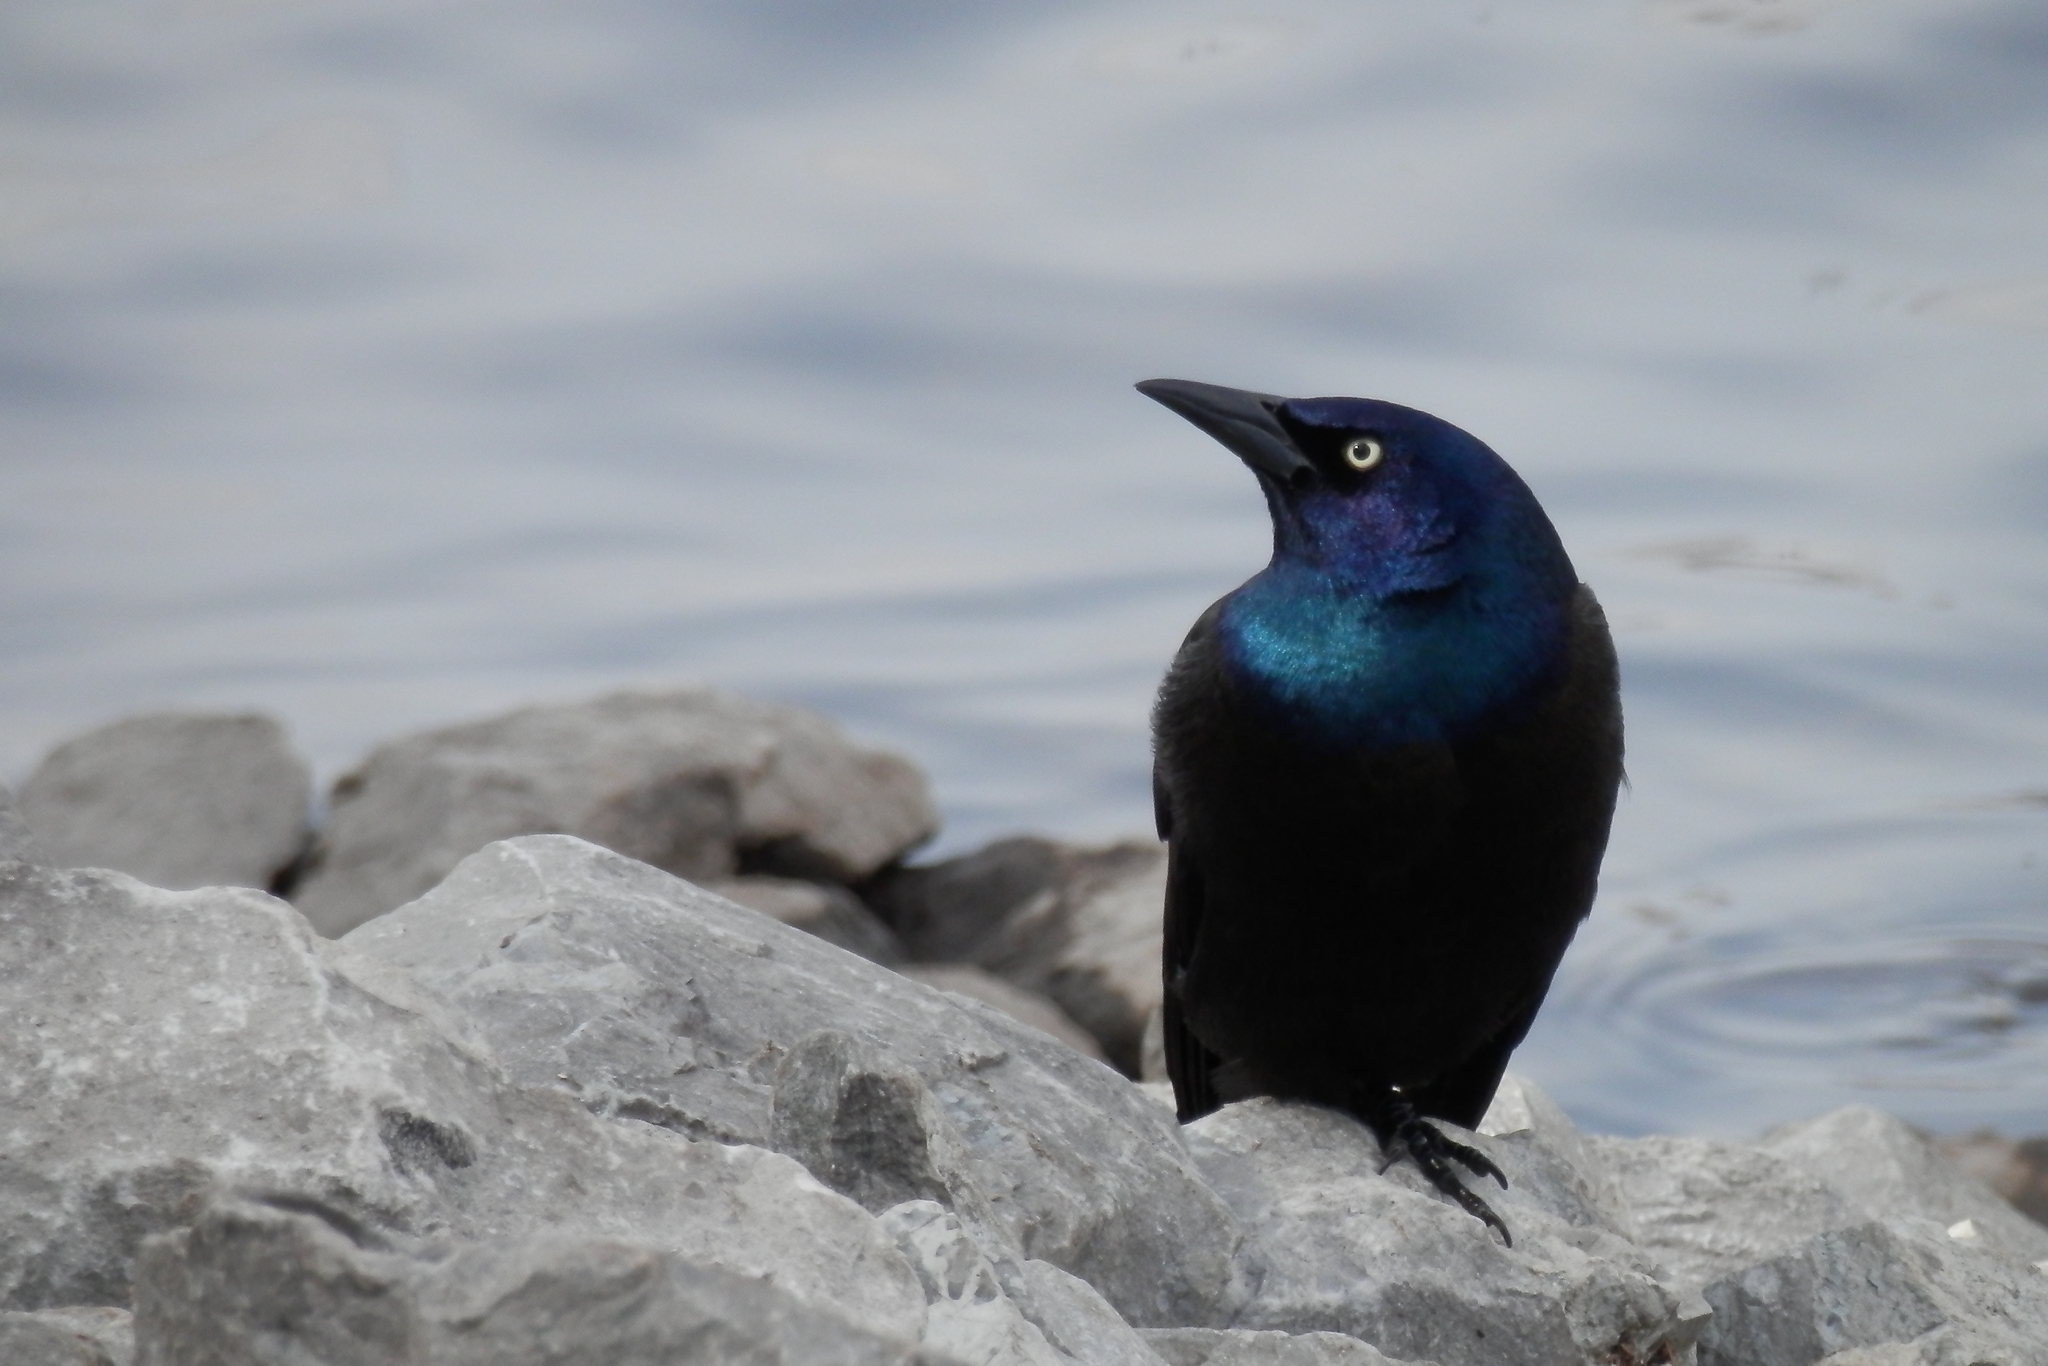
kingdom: Animalia
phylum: Chordata
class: Aves
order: Passeriformes
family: Icteridae
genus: Quiscalus
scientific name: Quiscalus quiscula
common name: Common grackle
